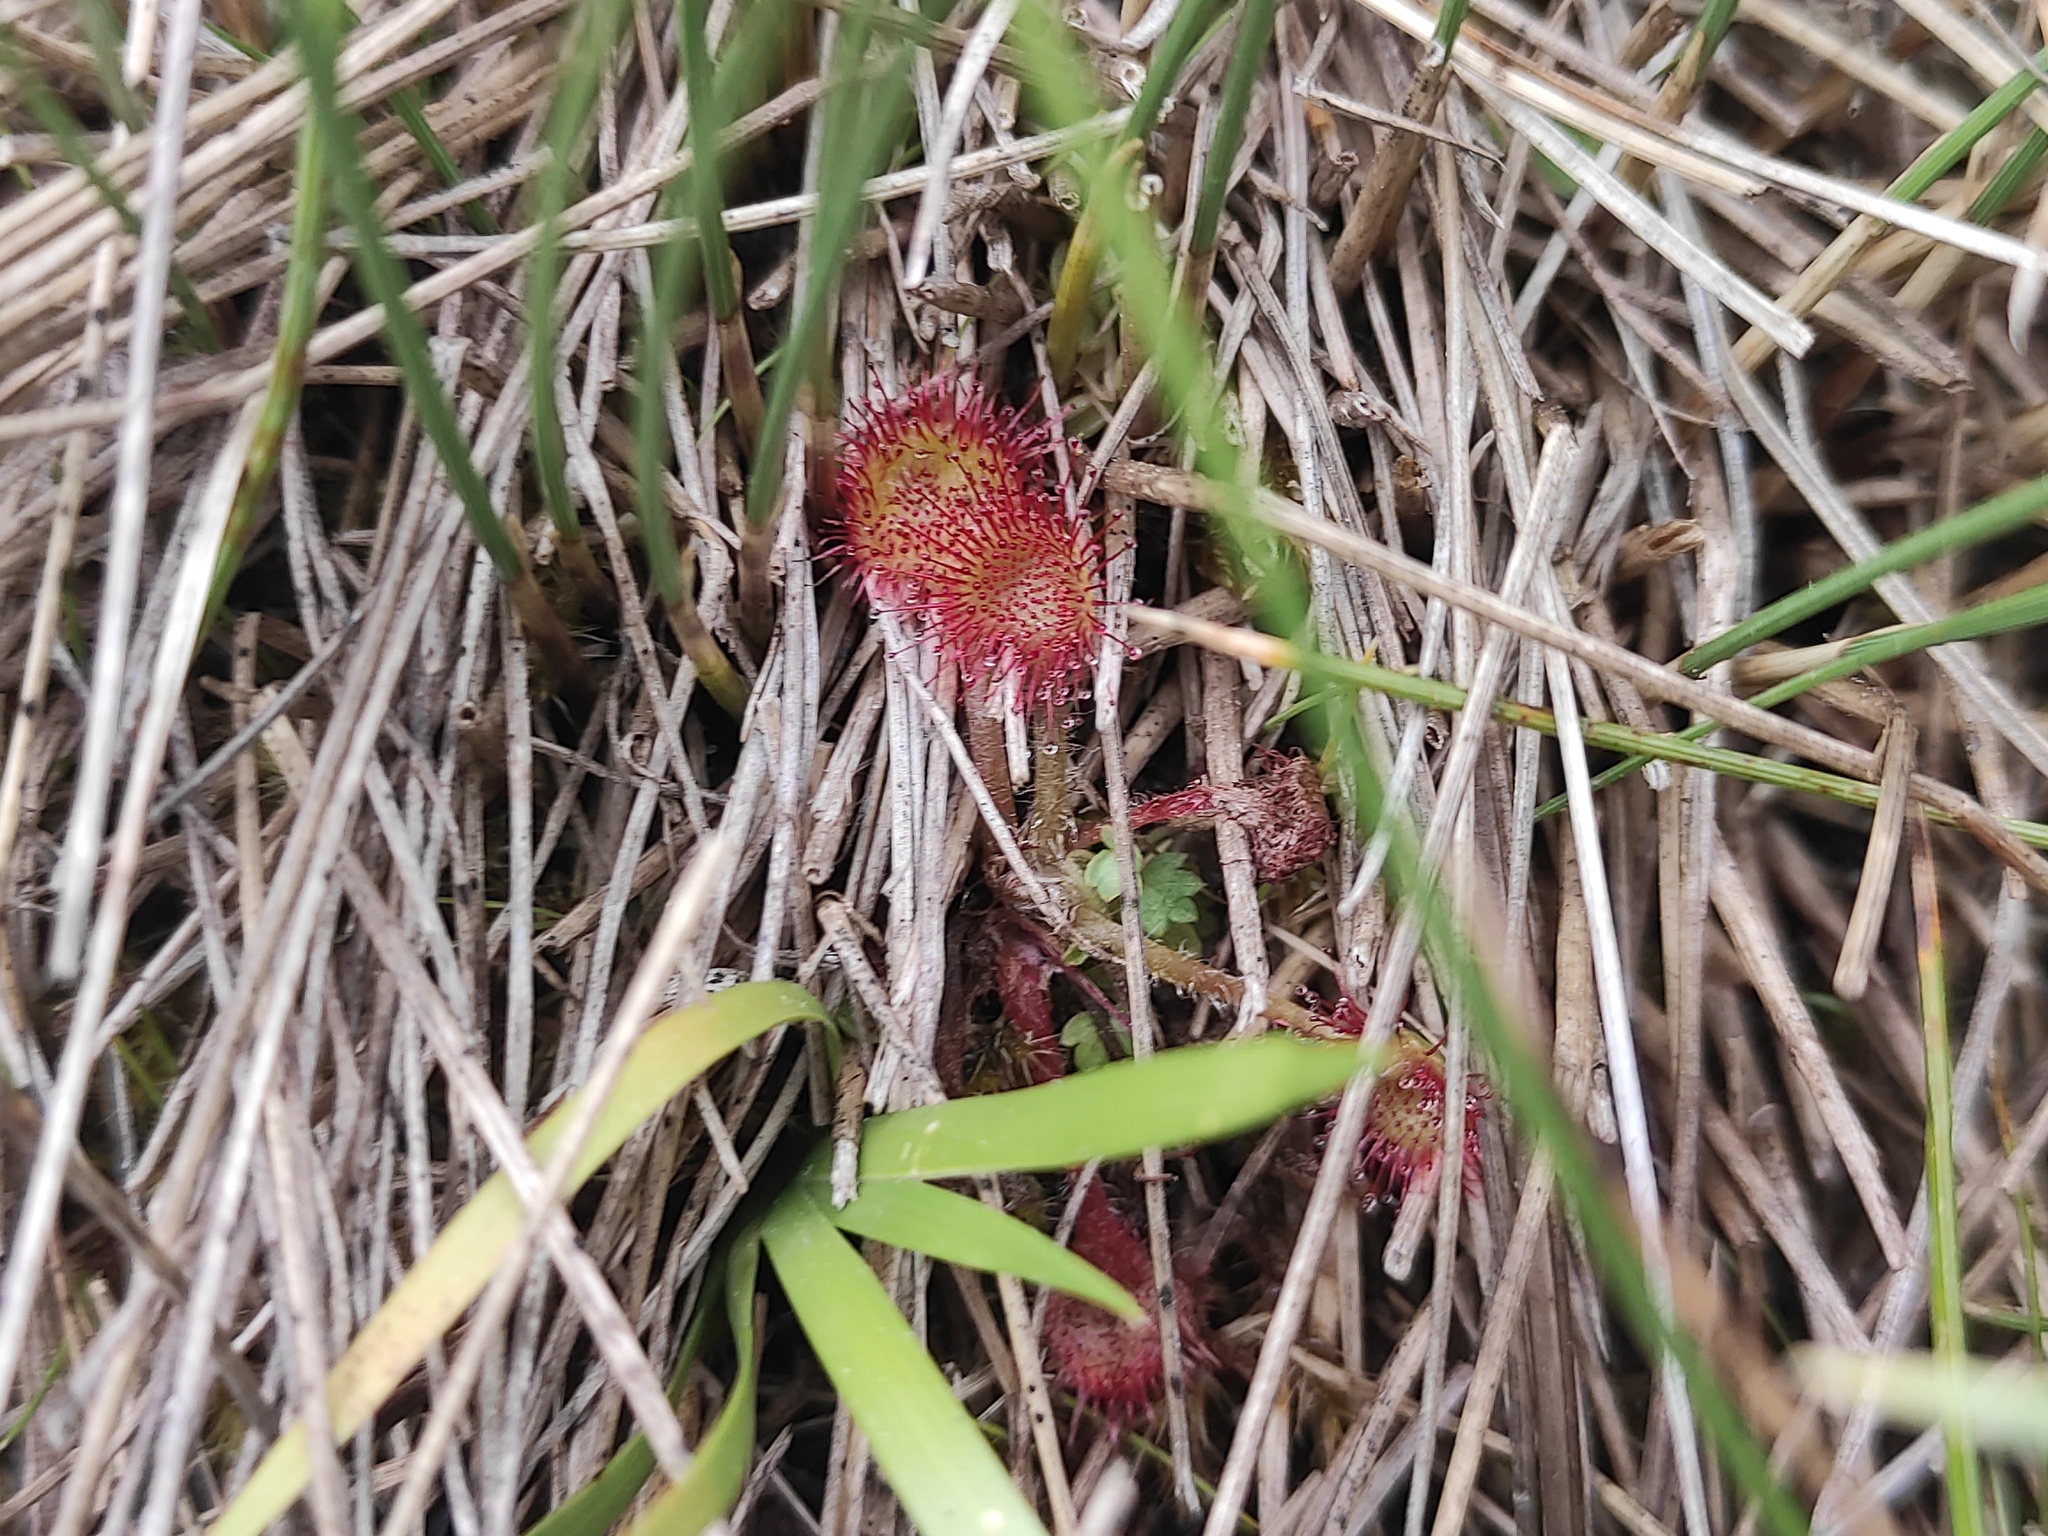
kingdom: Plantae
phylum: Tracheophyta
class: Magnoliopsida
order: Caryophyllales
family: Droseraceae
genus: Drosera
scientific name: Drosera rotundifolia
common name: Round-leaved sundew
